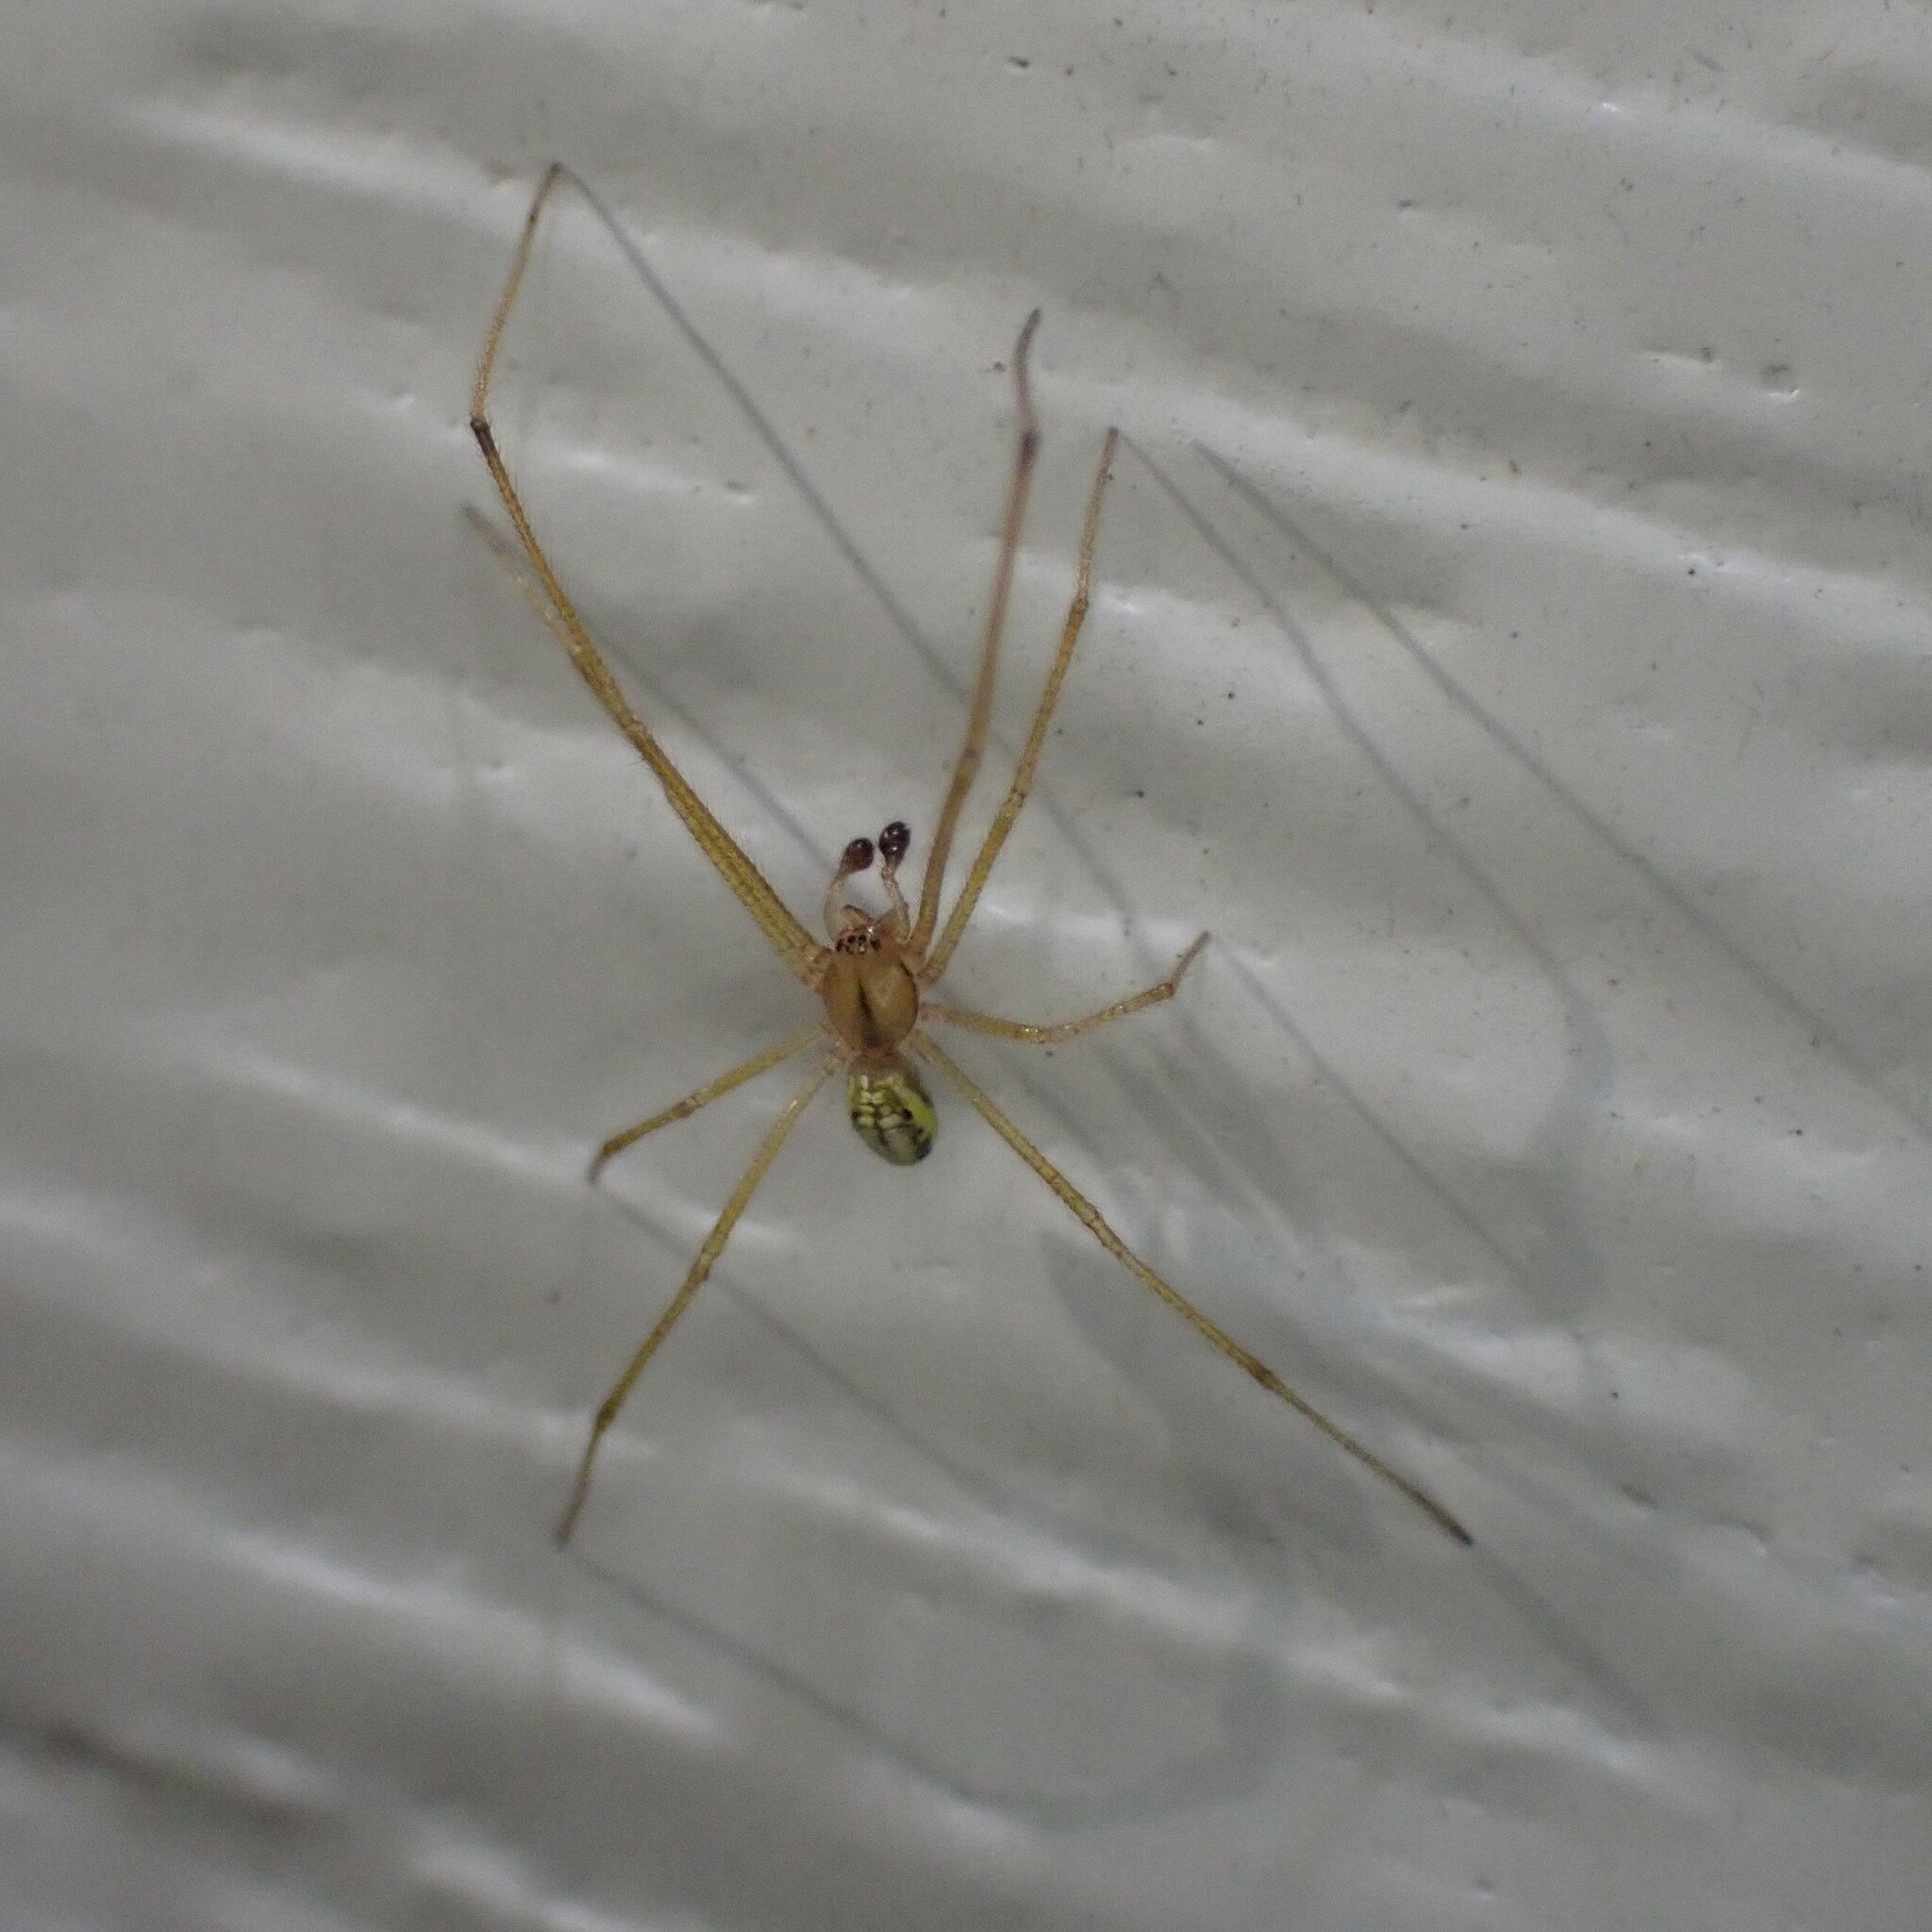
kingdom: Animalia
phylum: Arthropoda
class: Arachnida
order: Araneae
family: Theridiidae
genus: Enoplognatha
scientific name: Enoplognatha ovata
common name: Common candy-striped spider
